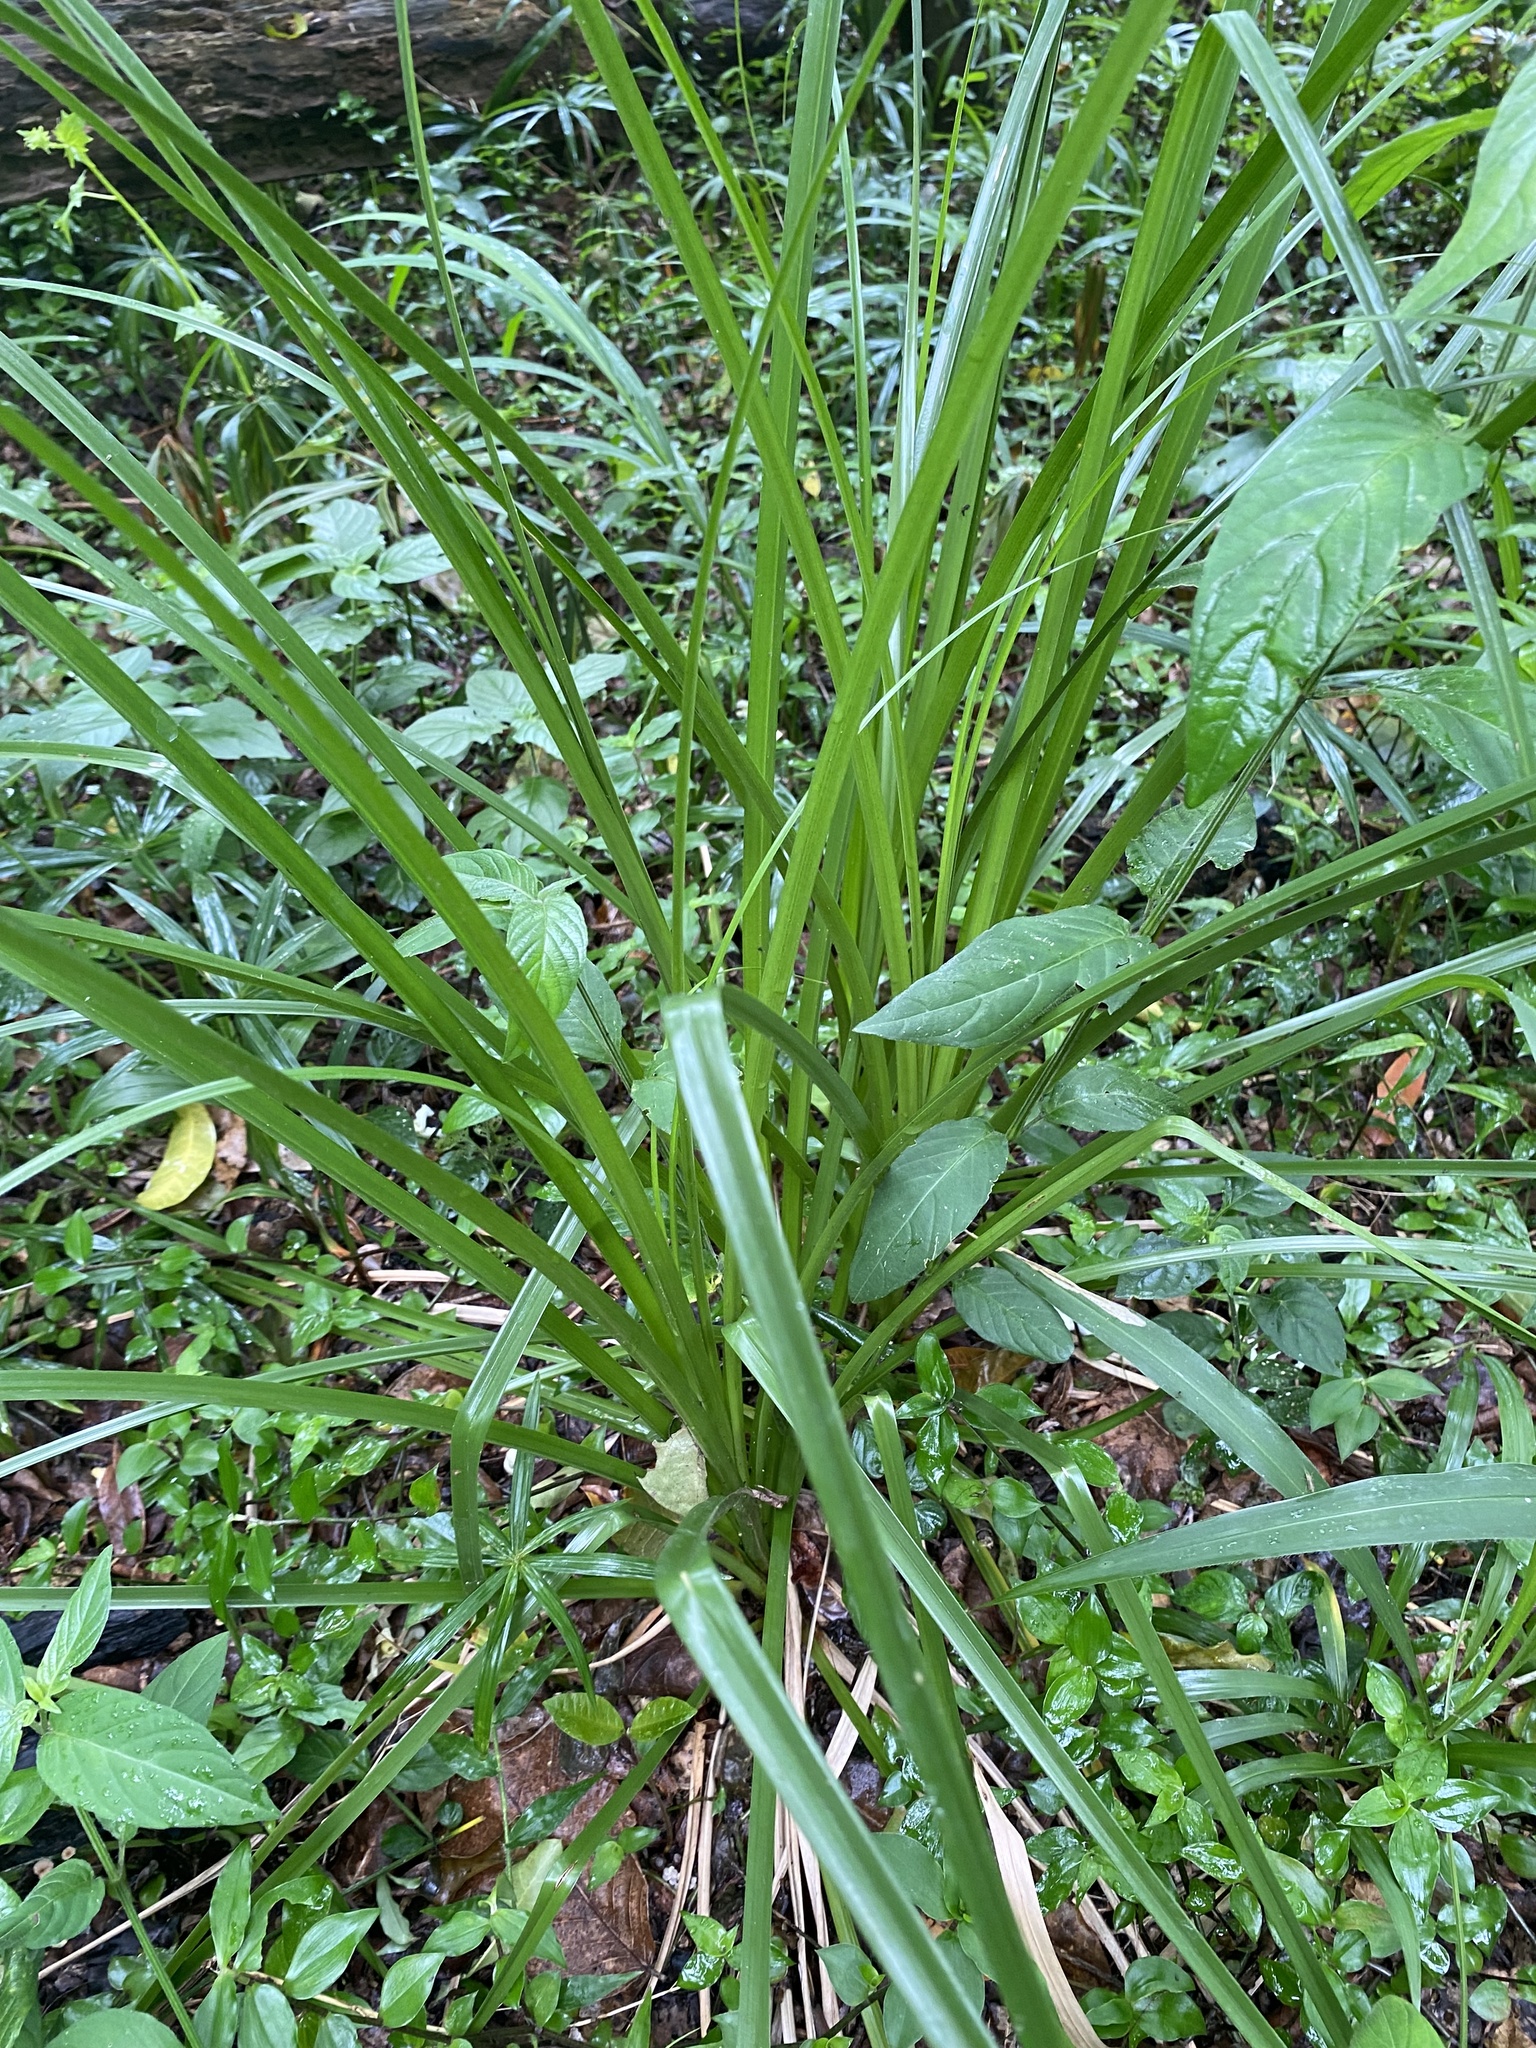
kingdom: Plantae
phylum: Tracheophyta
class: Liliopsida
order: Asparagales
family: Asparagaceae
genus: Chlorophytum
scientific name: Chlorophytum saundersiae
